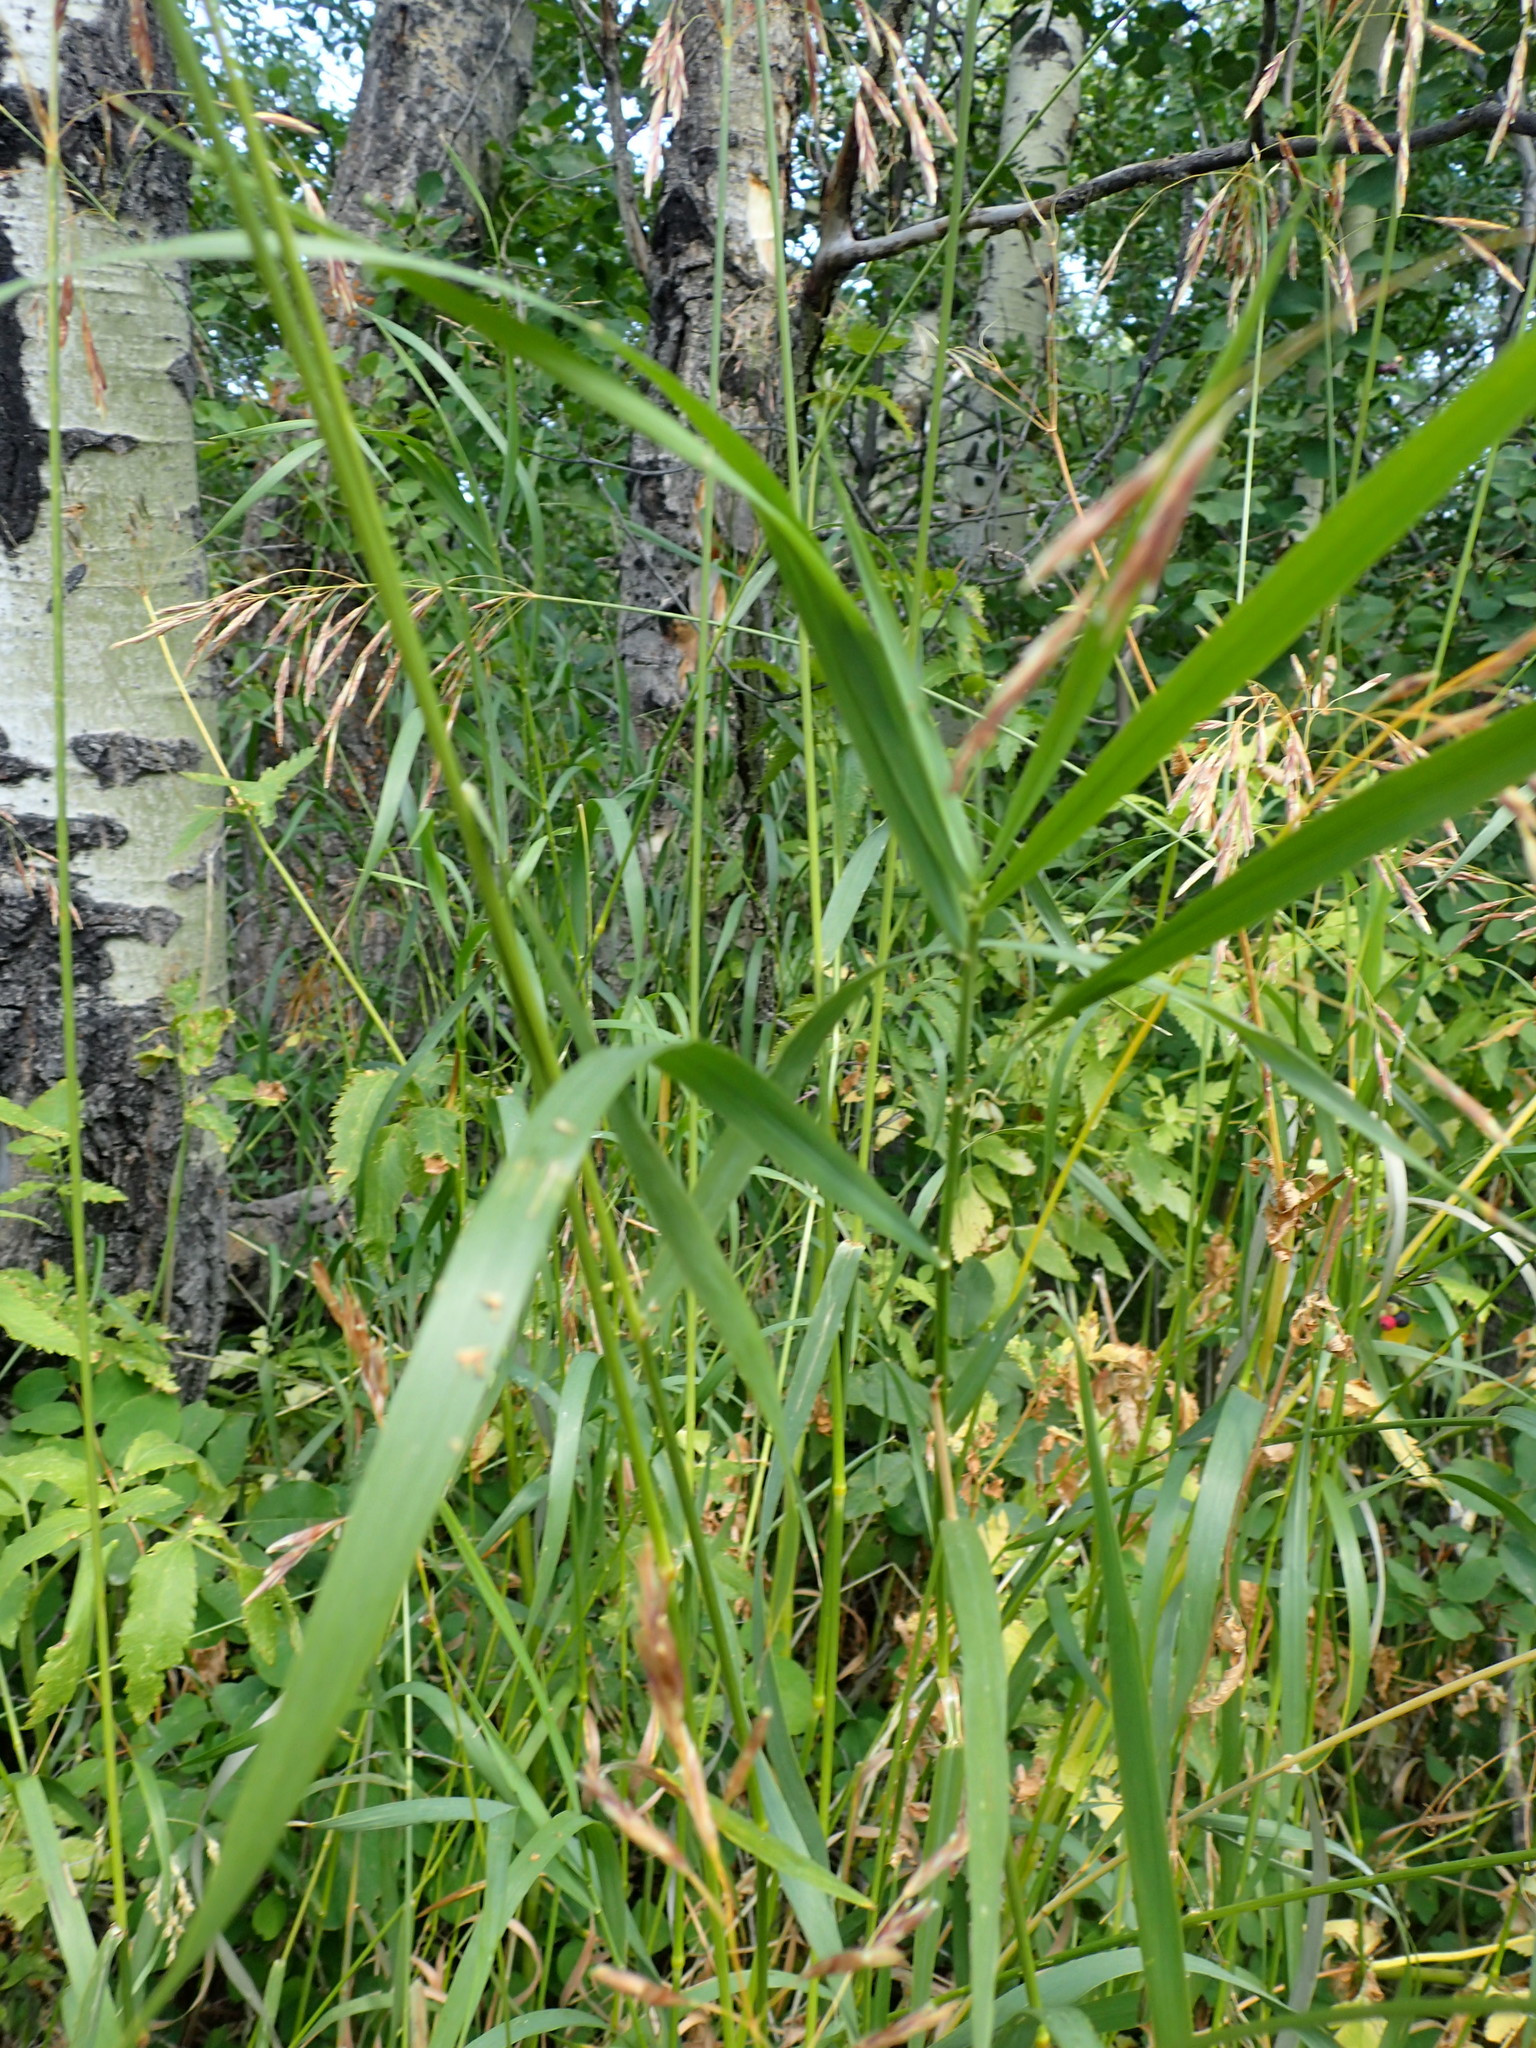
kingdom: Plantae
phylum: Tracheophyta
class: Liliopsida
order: Poales
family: Poaceae
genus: Bromus
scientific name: Bromus inermis
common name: Smooth brome
